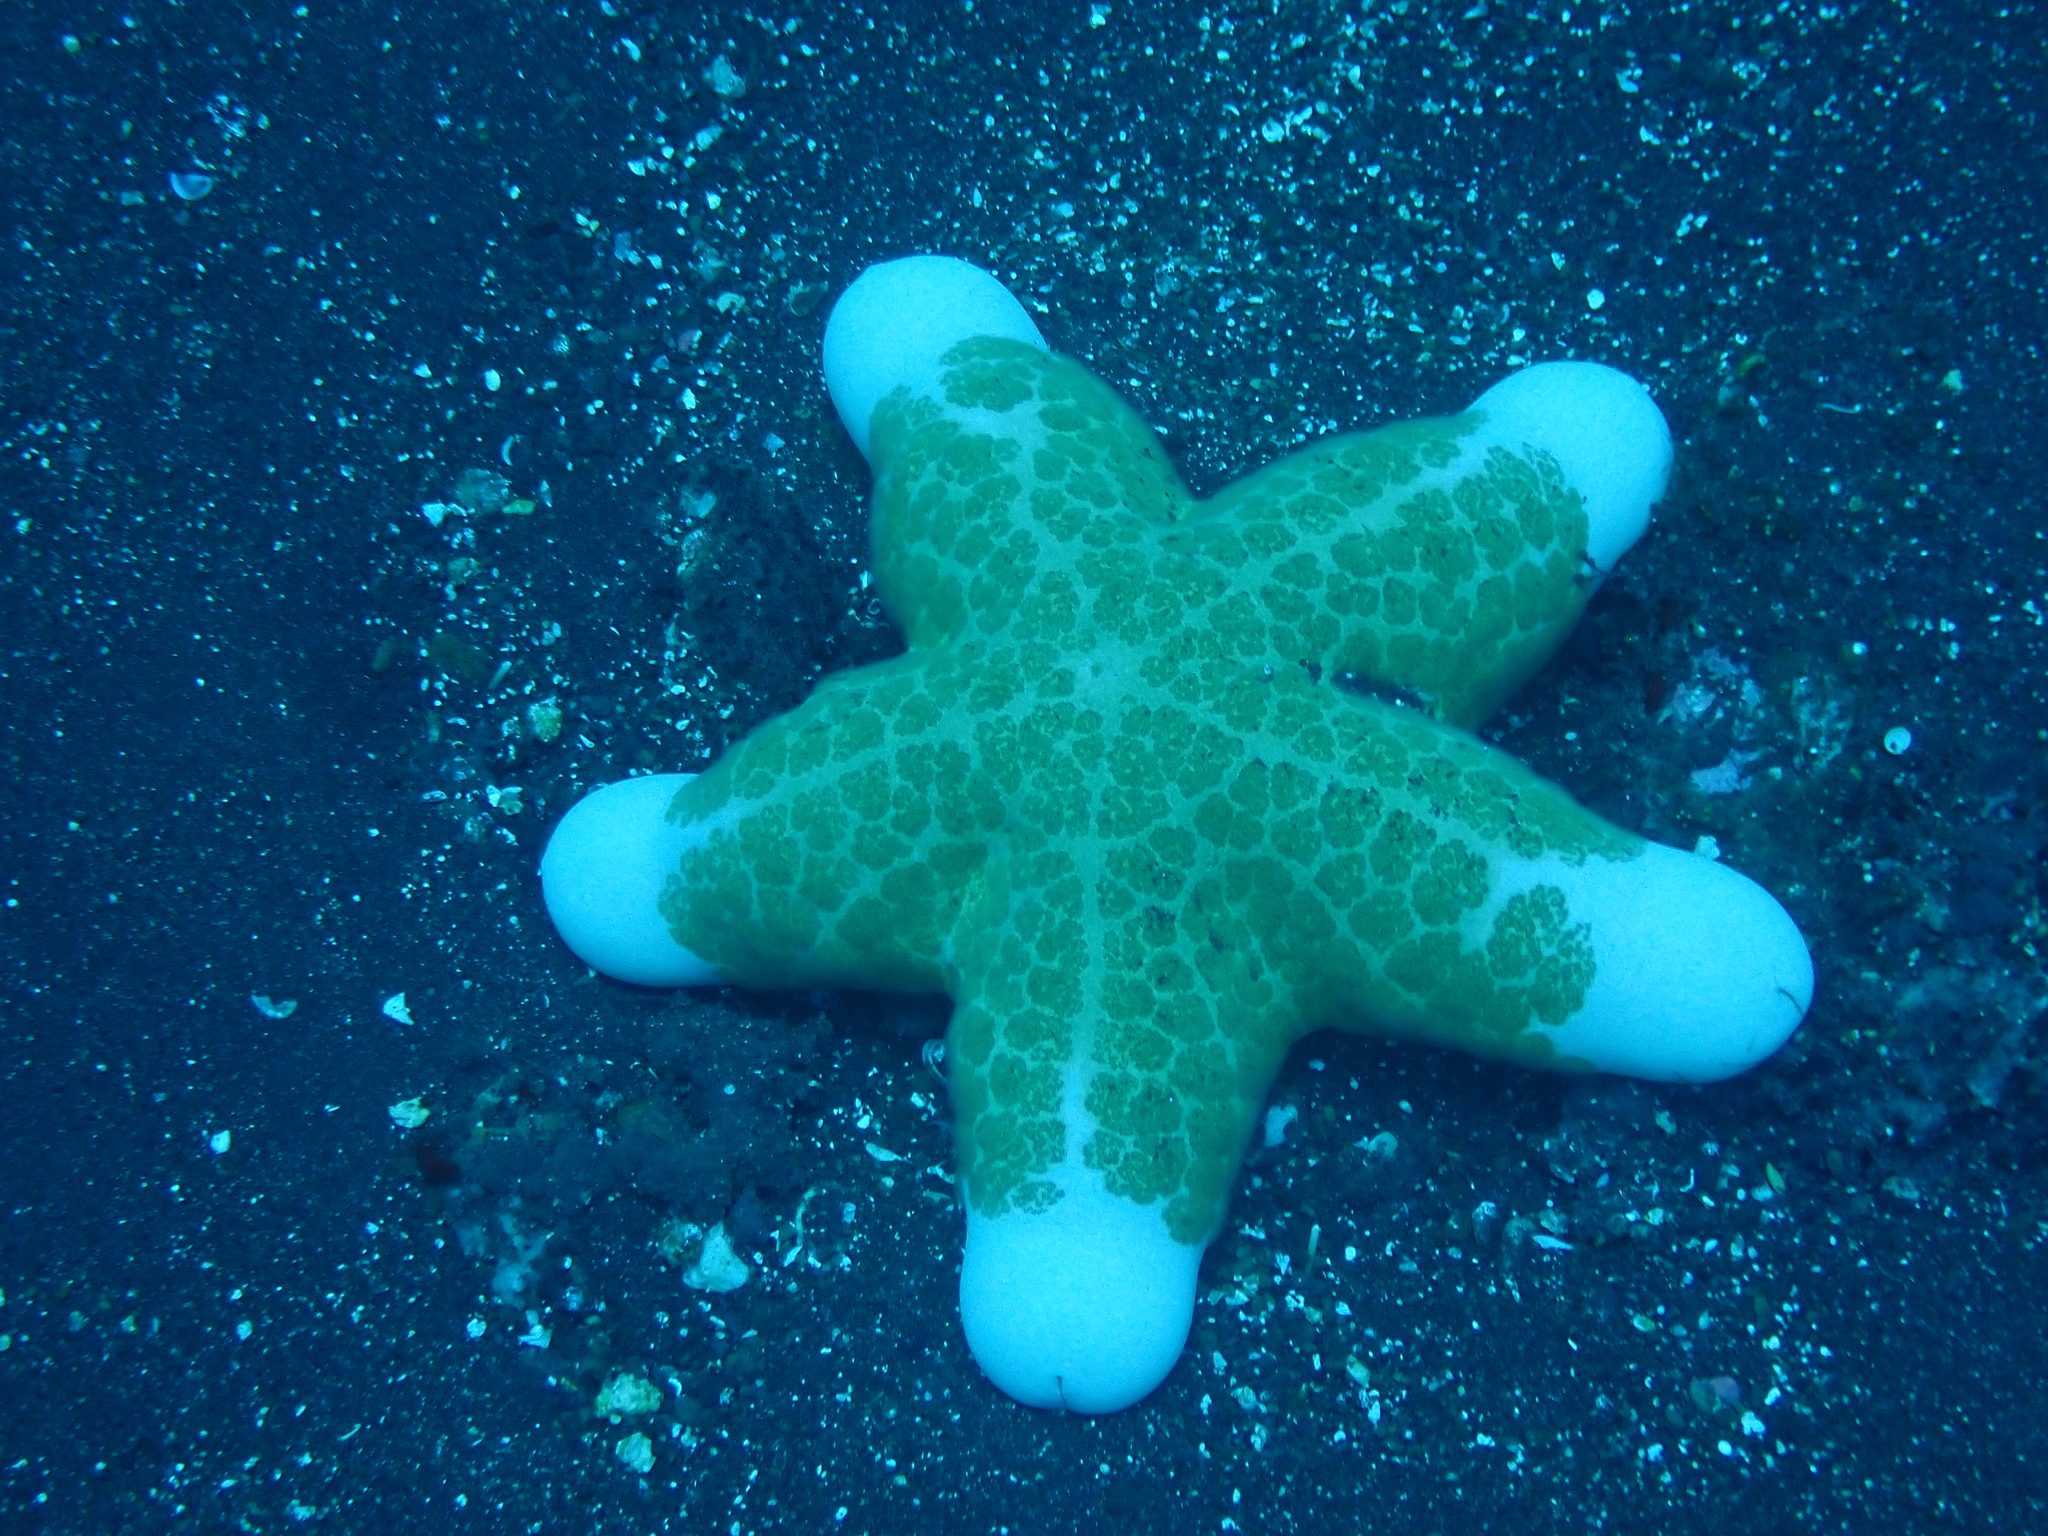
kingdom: Animalia
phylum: Echinodermata
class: Asteroidea
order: Valvatida
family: Oreasteridae
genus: Choriaster
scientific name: Choriaster granulatus
